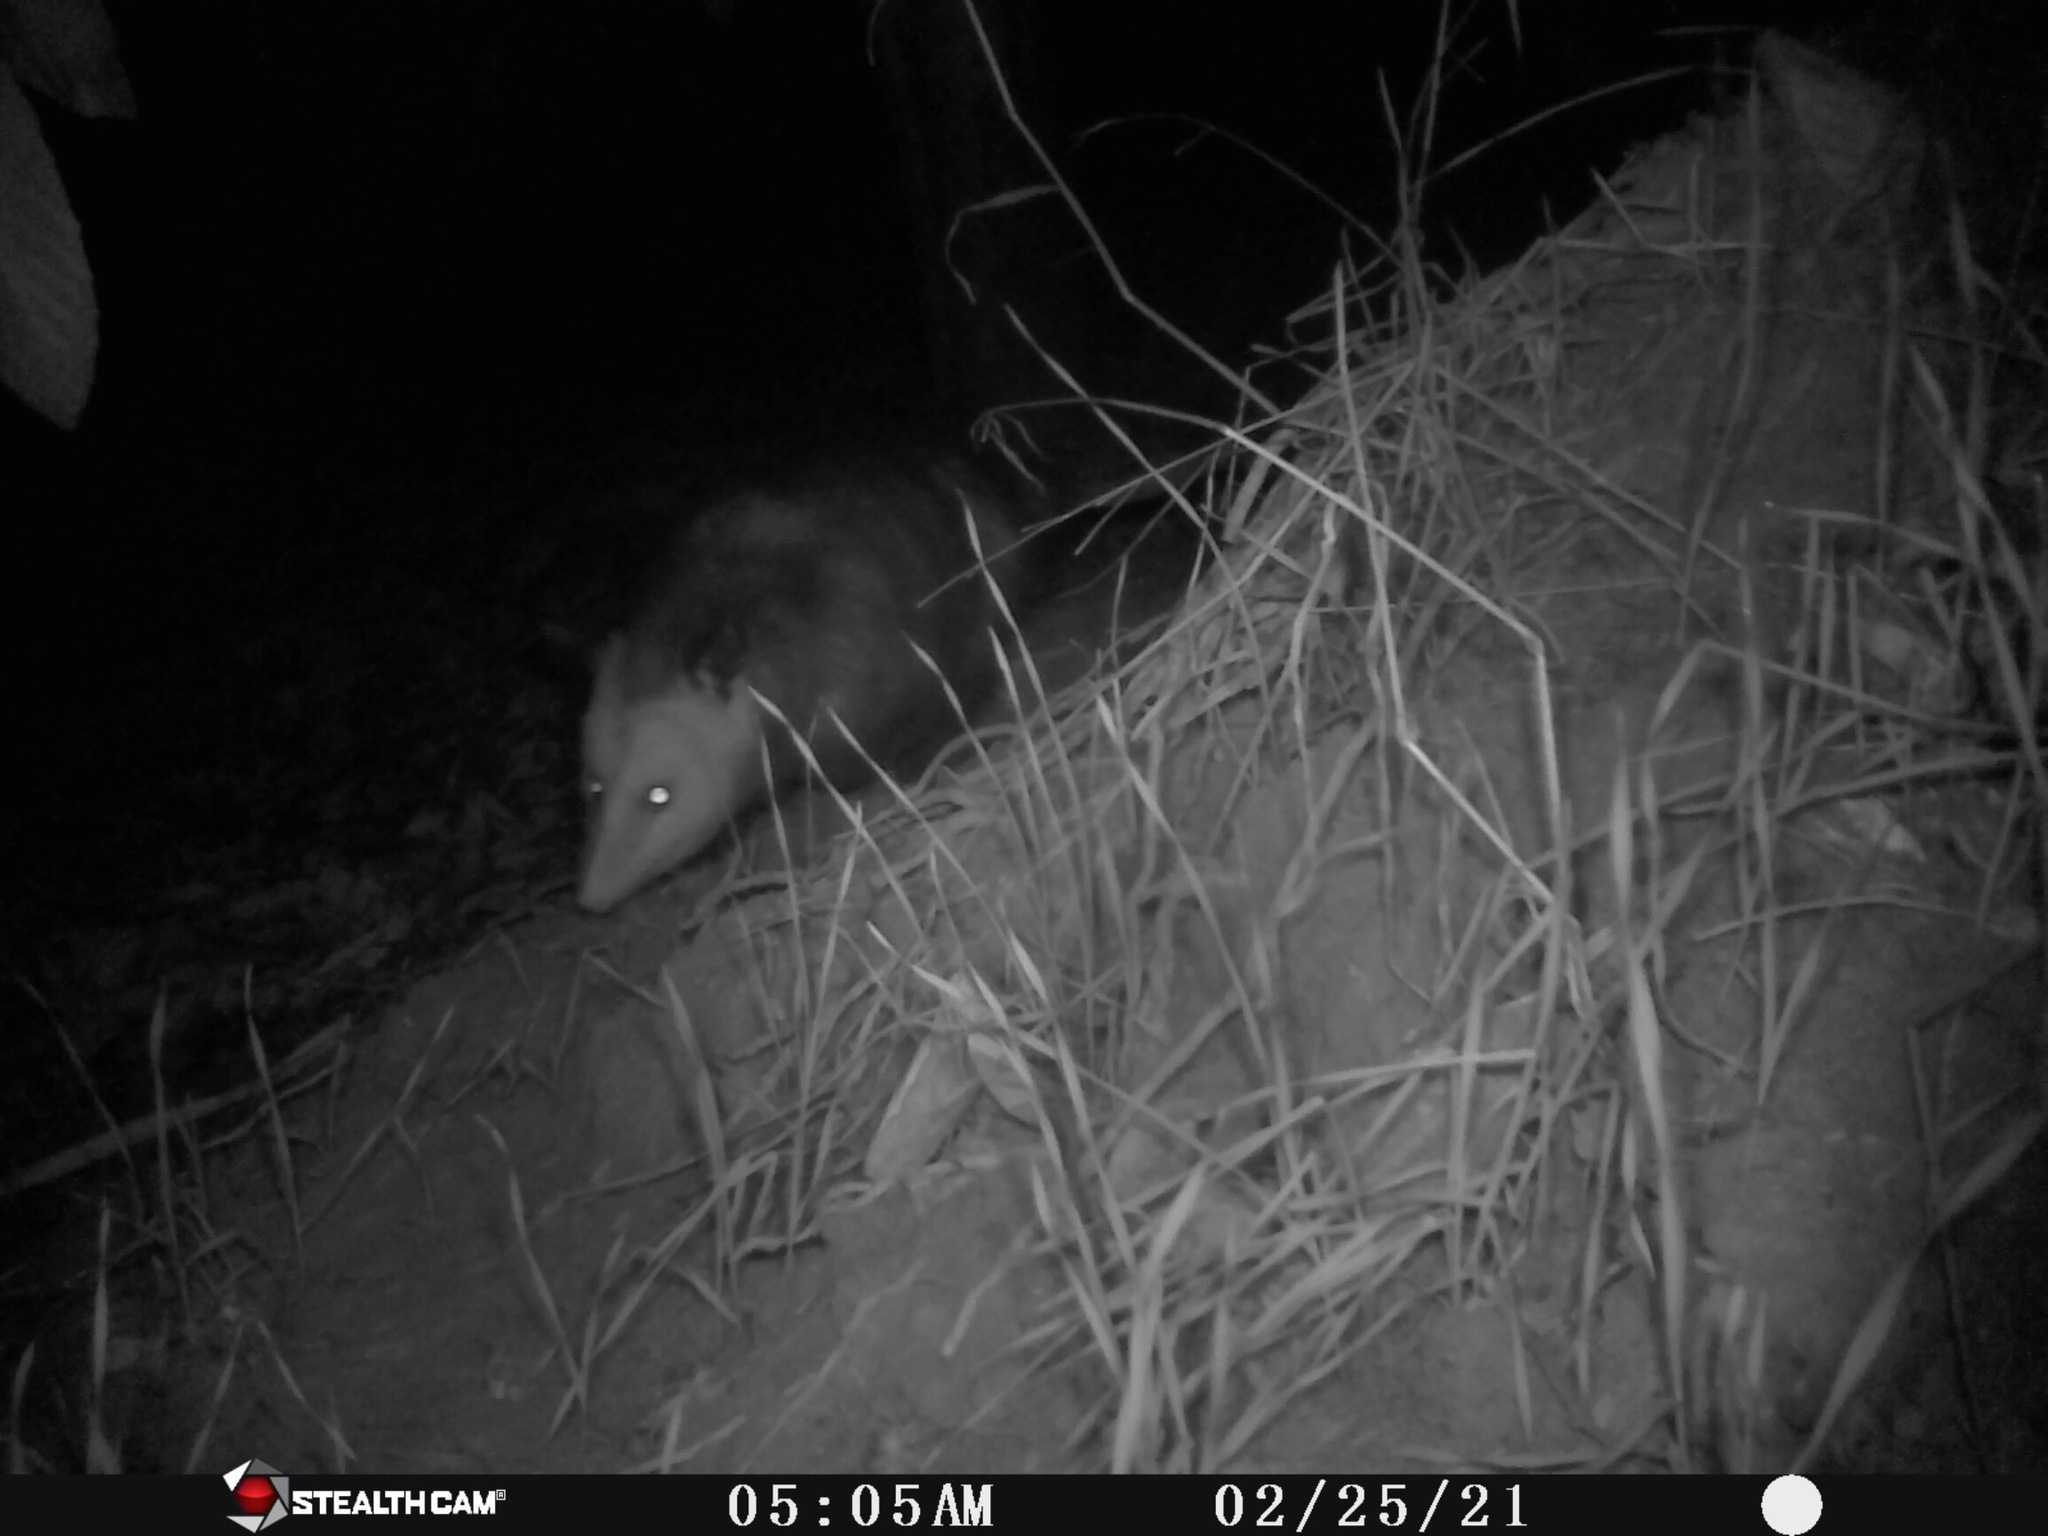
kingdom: Animalia
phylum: Chordata
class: Mammalia
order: Didelphimorphia
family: Didelphidae
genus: Didelphis
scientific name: Didelphis virginiana
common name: Virginia opossum
